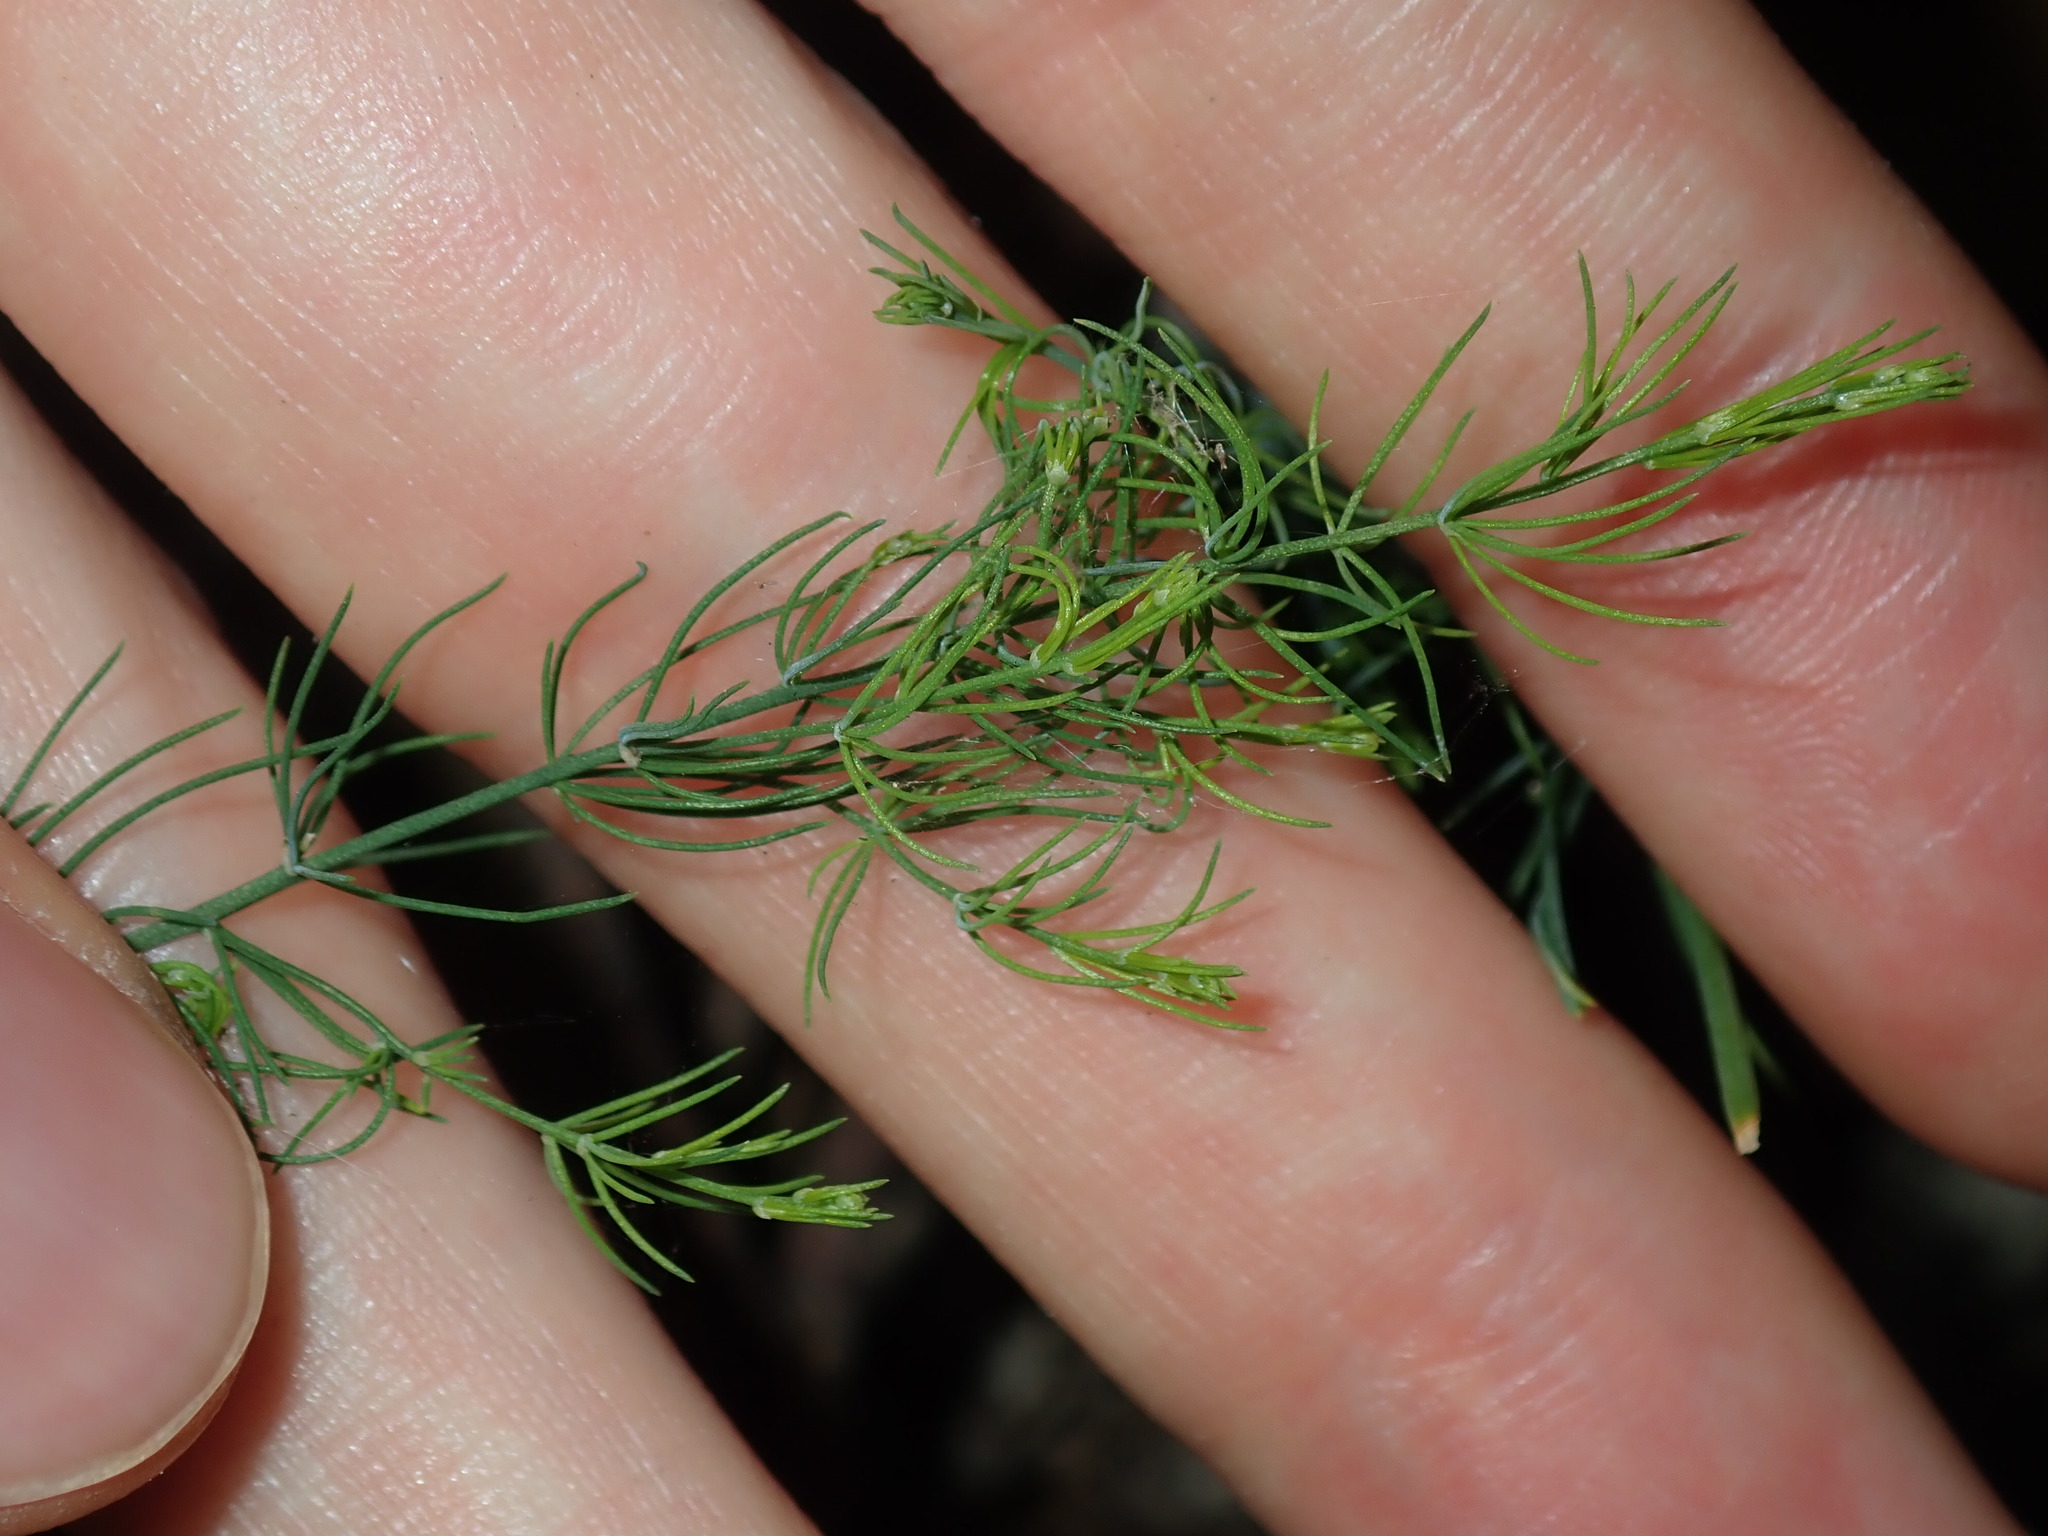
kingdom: Plantae
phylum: Tracheophyta
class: Liliopsida
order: Asparagales
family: Asparagaceae
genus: Asparagus
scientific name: Asparagus officinalis
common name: Garden asparagus
